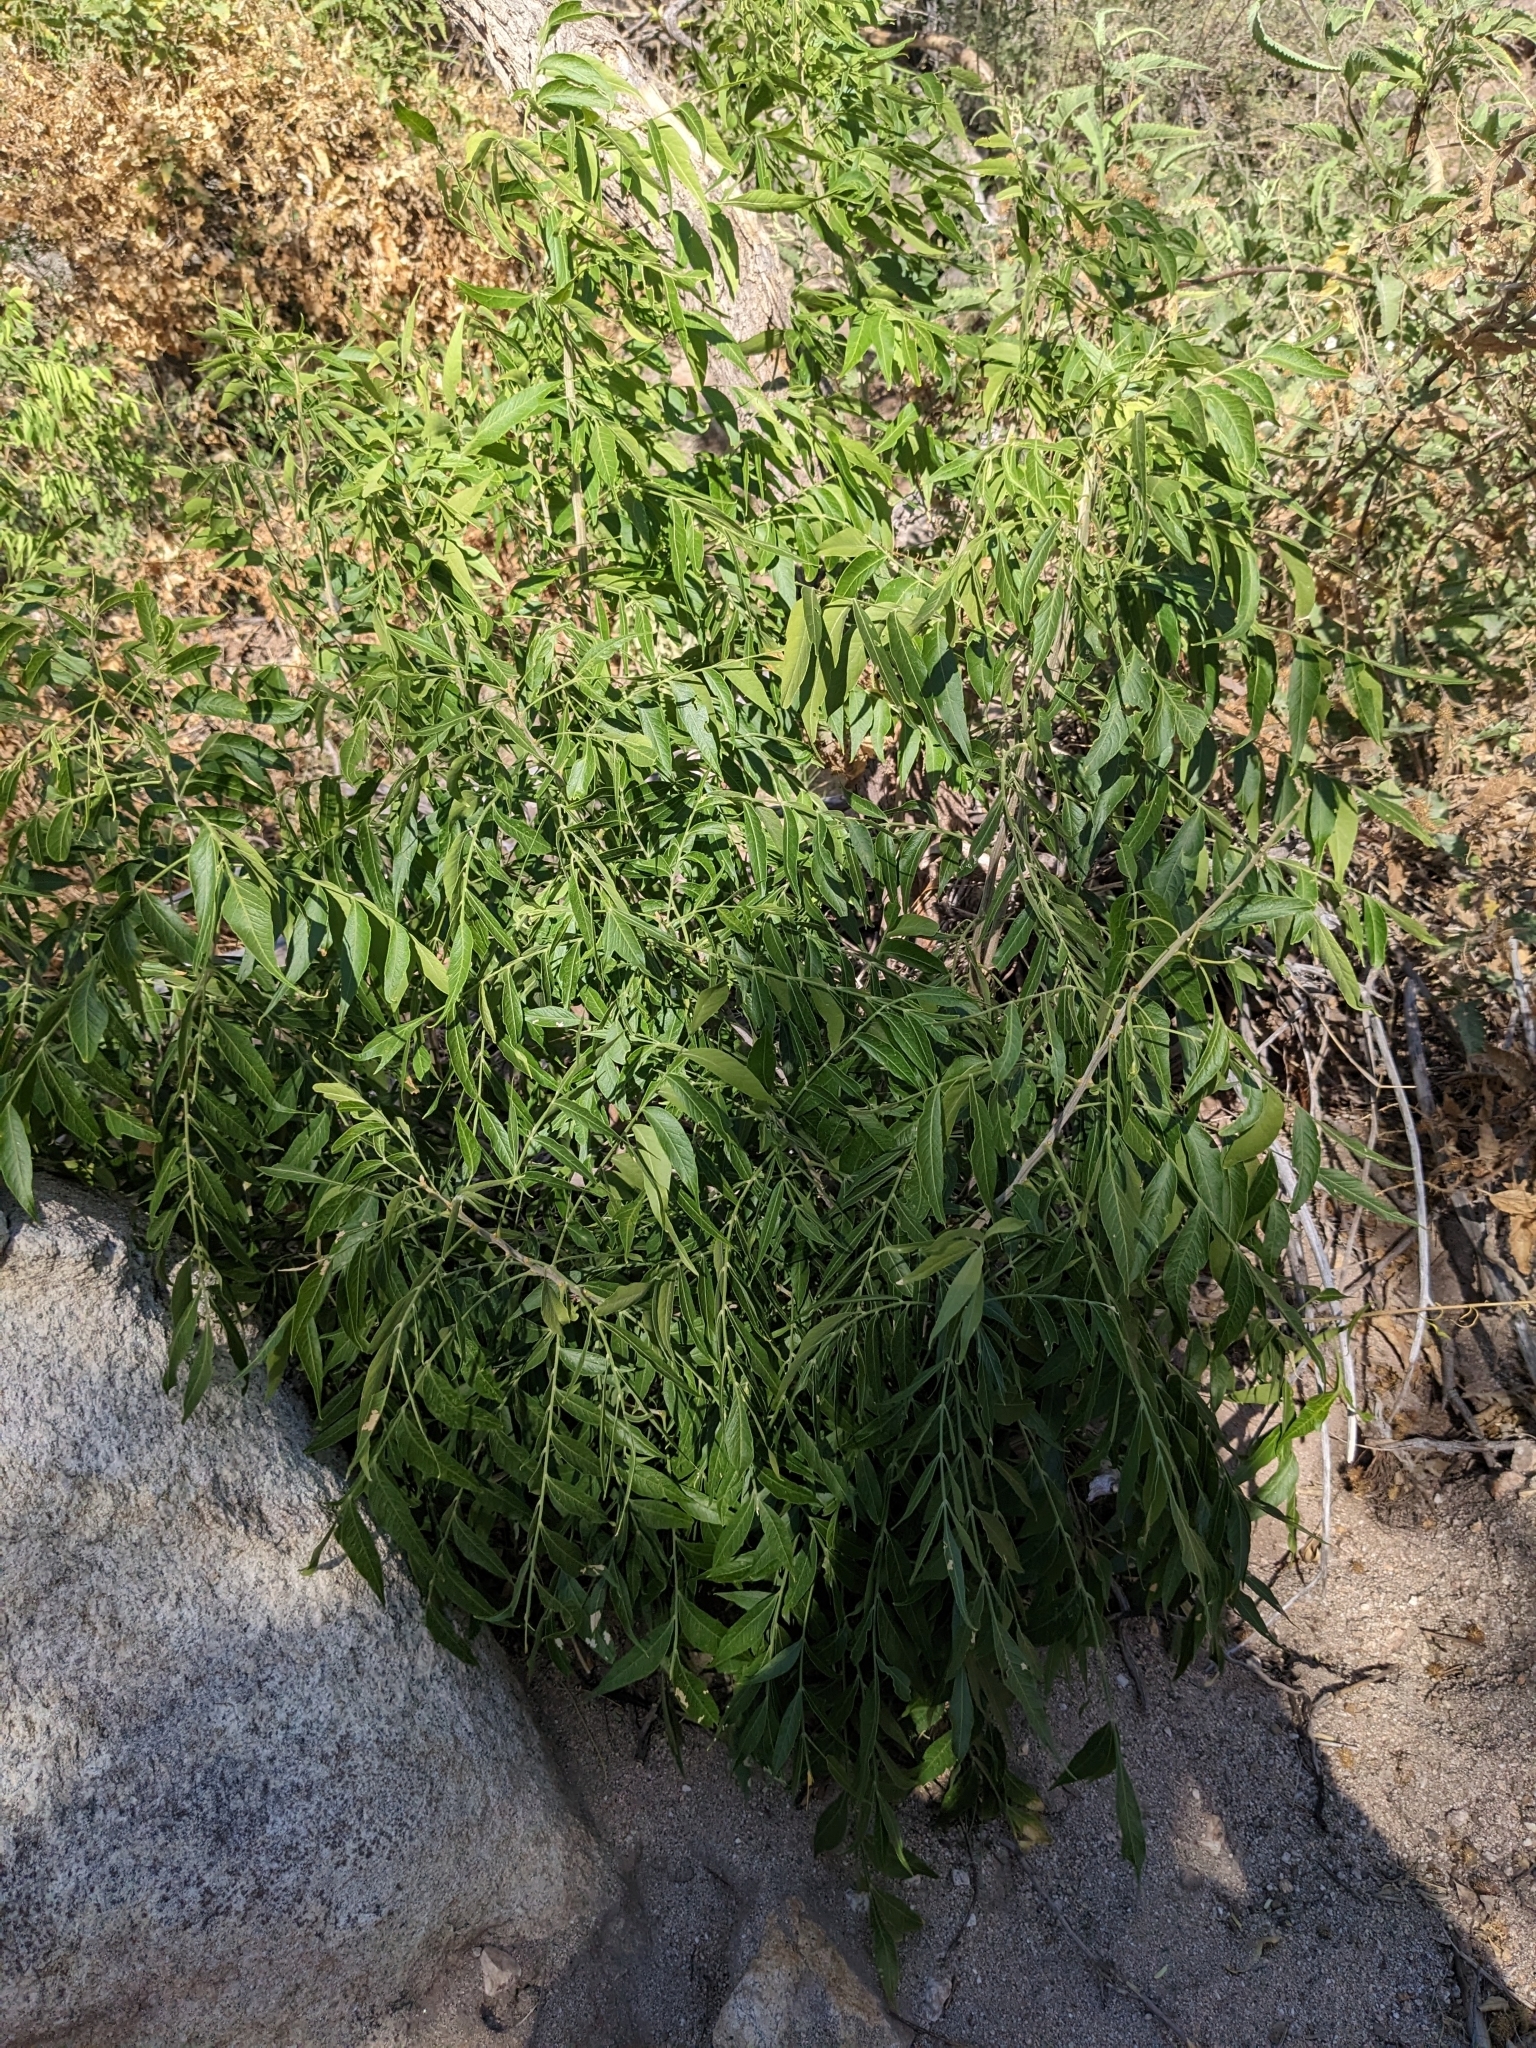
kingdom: Plantae
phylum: Tracheophyta
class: Magnoliopsida
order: Sapindales
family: Sapindaceae
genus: Sapindus
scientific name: Sapindus drummondii
